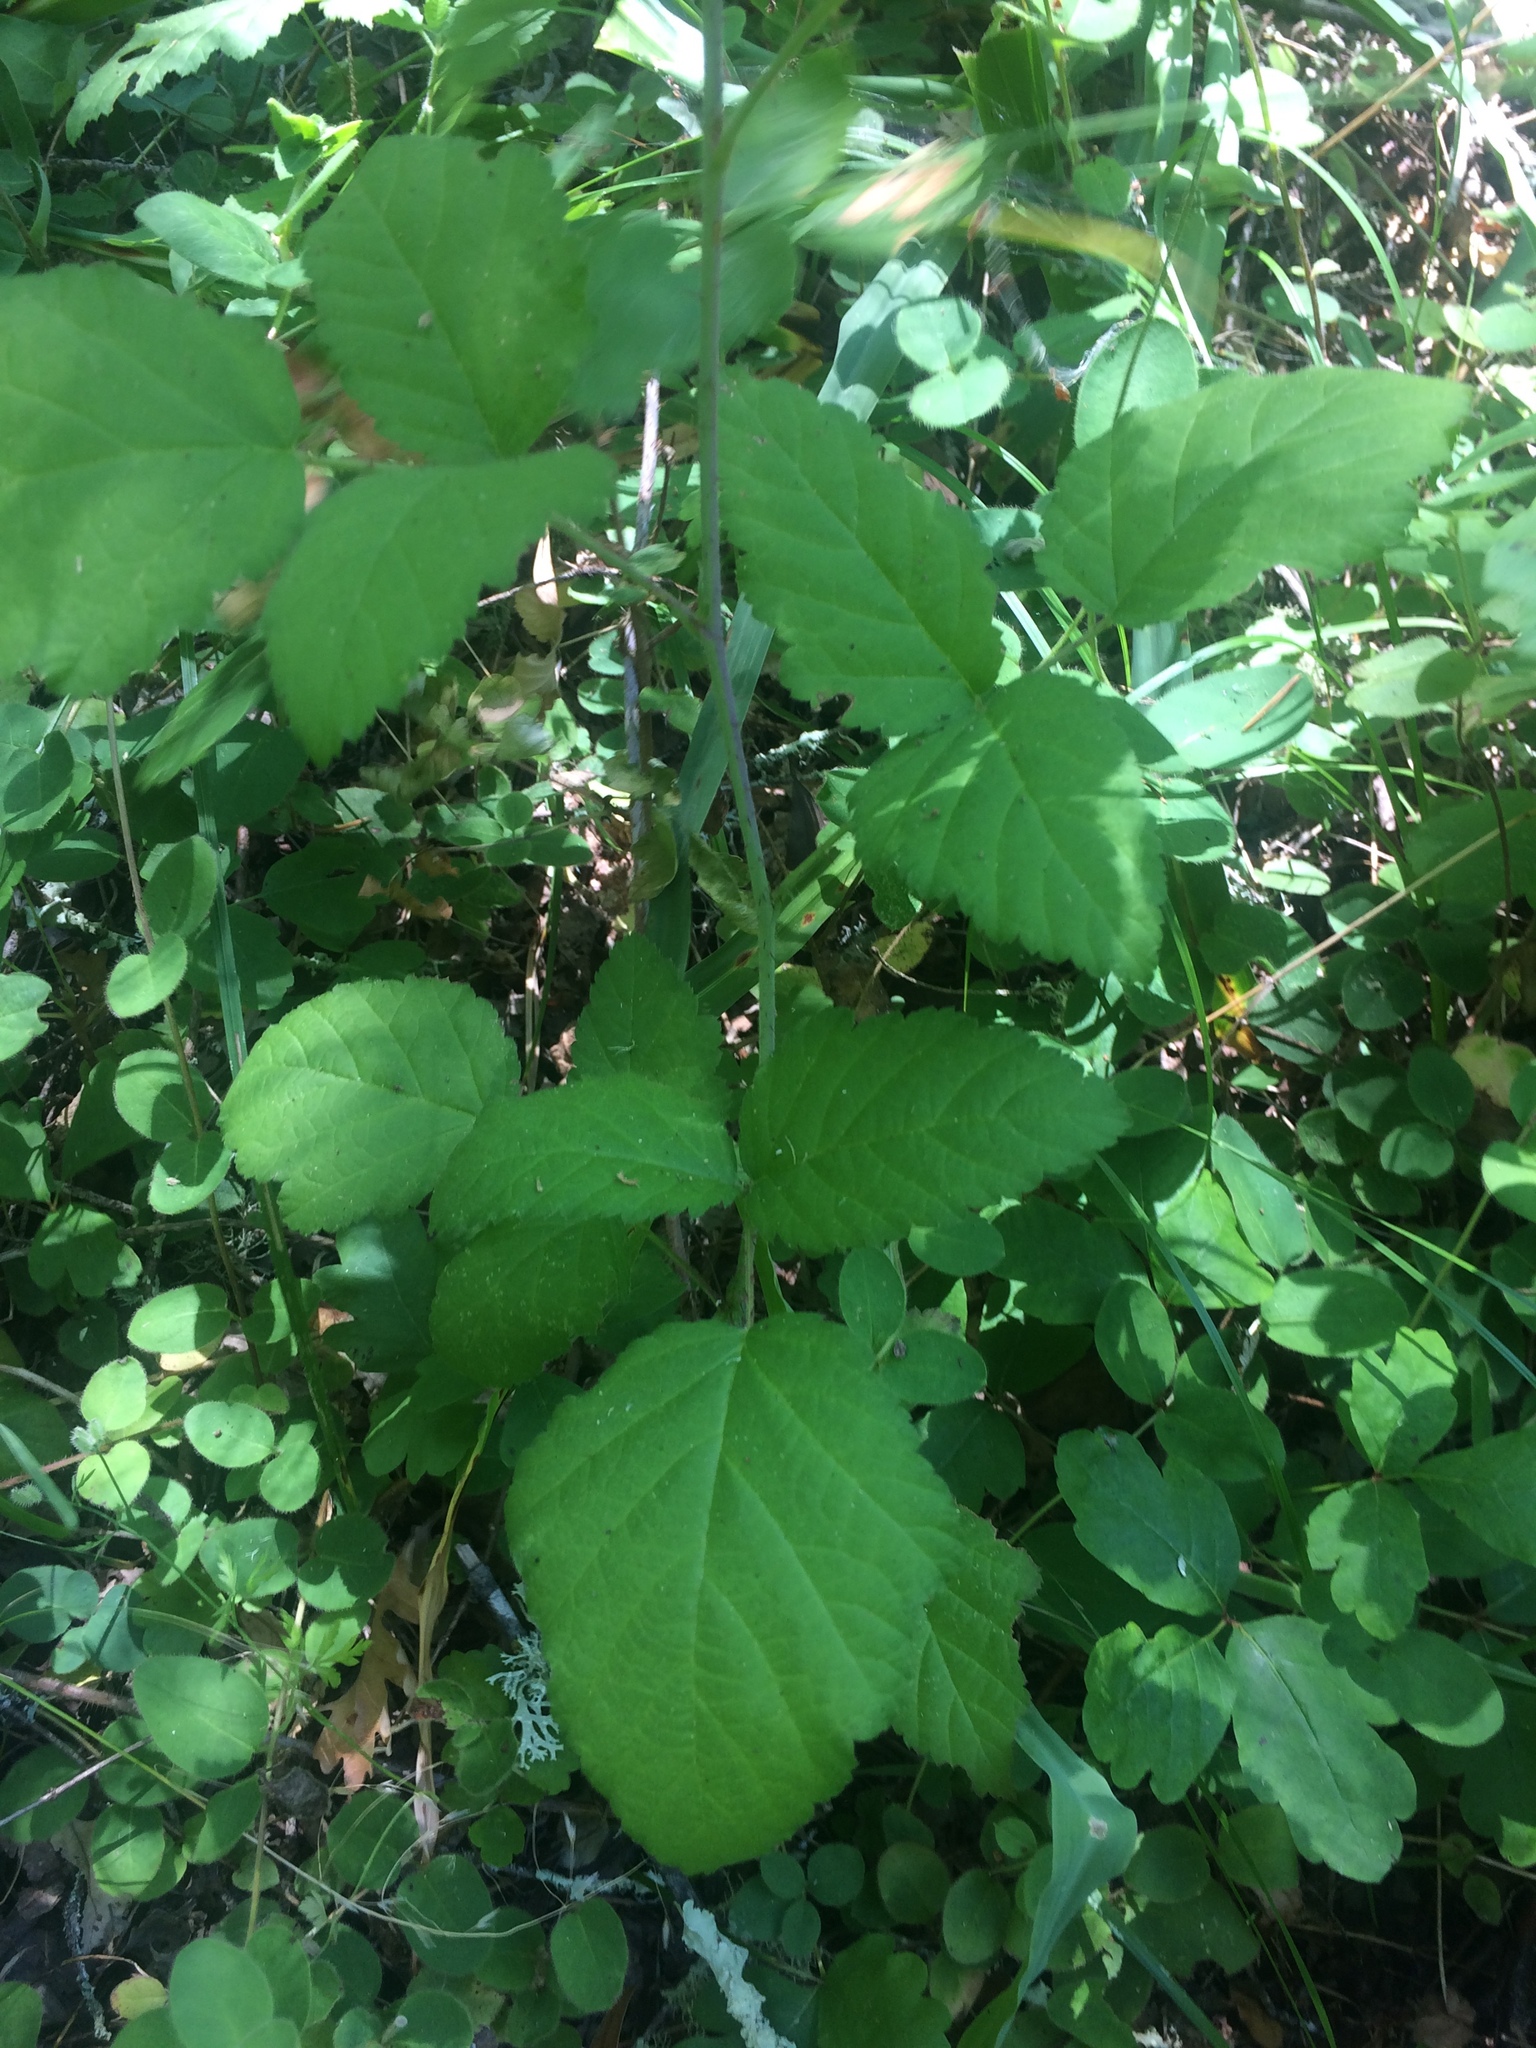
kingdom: Plantae
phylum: Tracheophyta
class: Magnoliopsida
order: Rosales
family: Rosaceae
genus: Rubus
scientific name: Rubus ursinus
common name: Pacific blackberry
